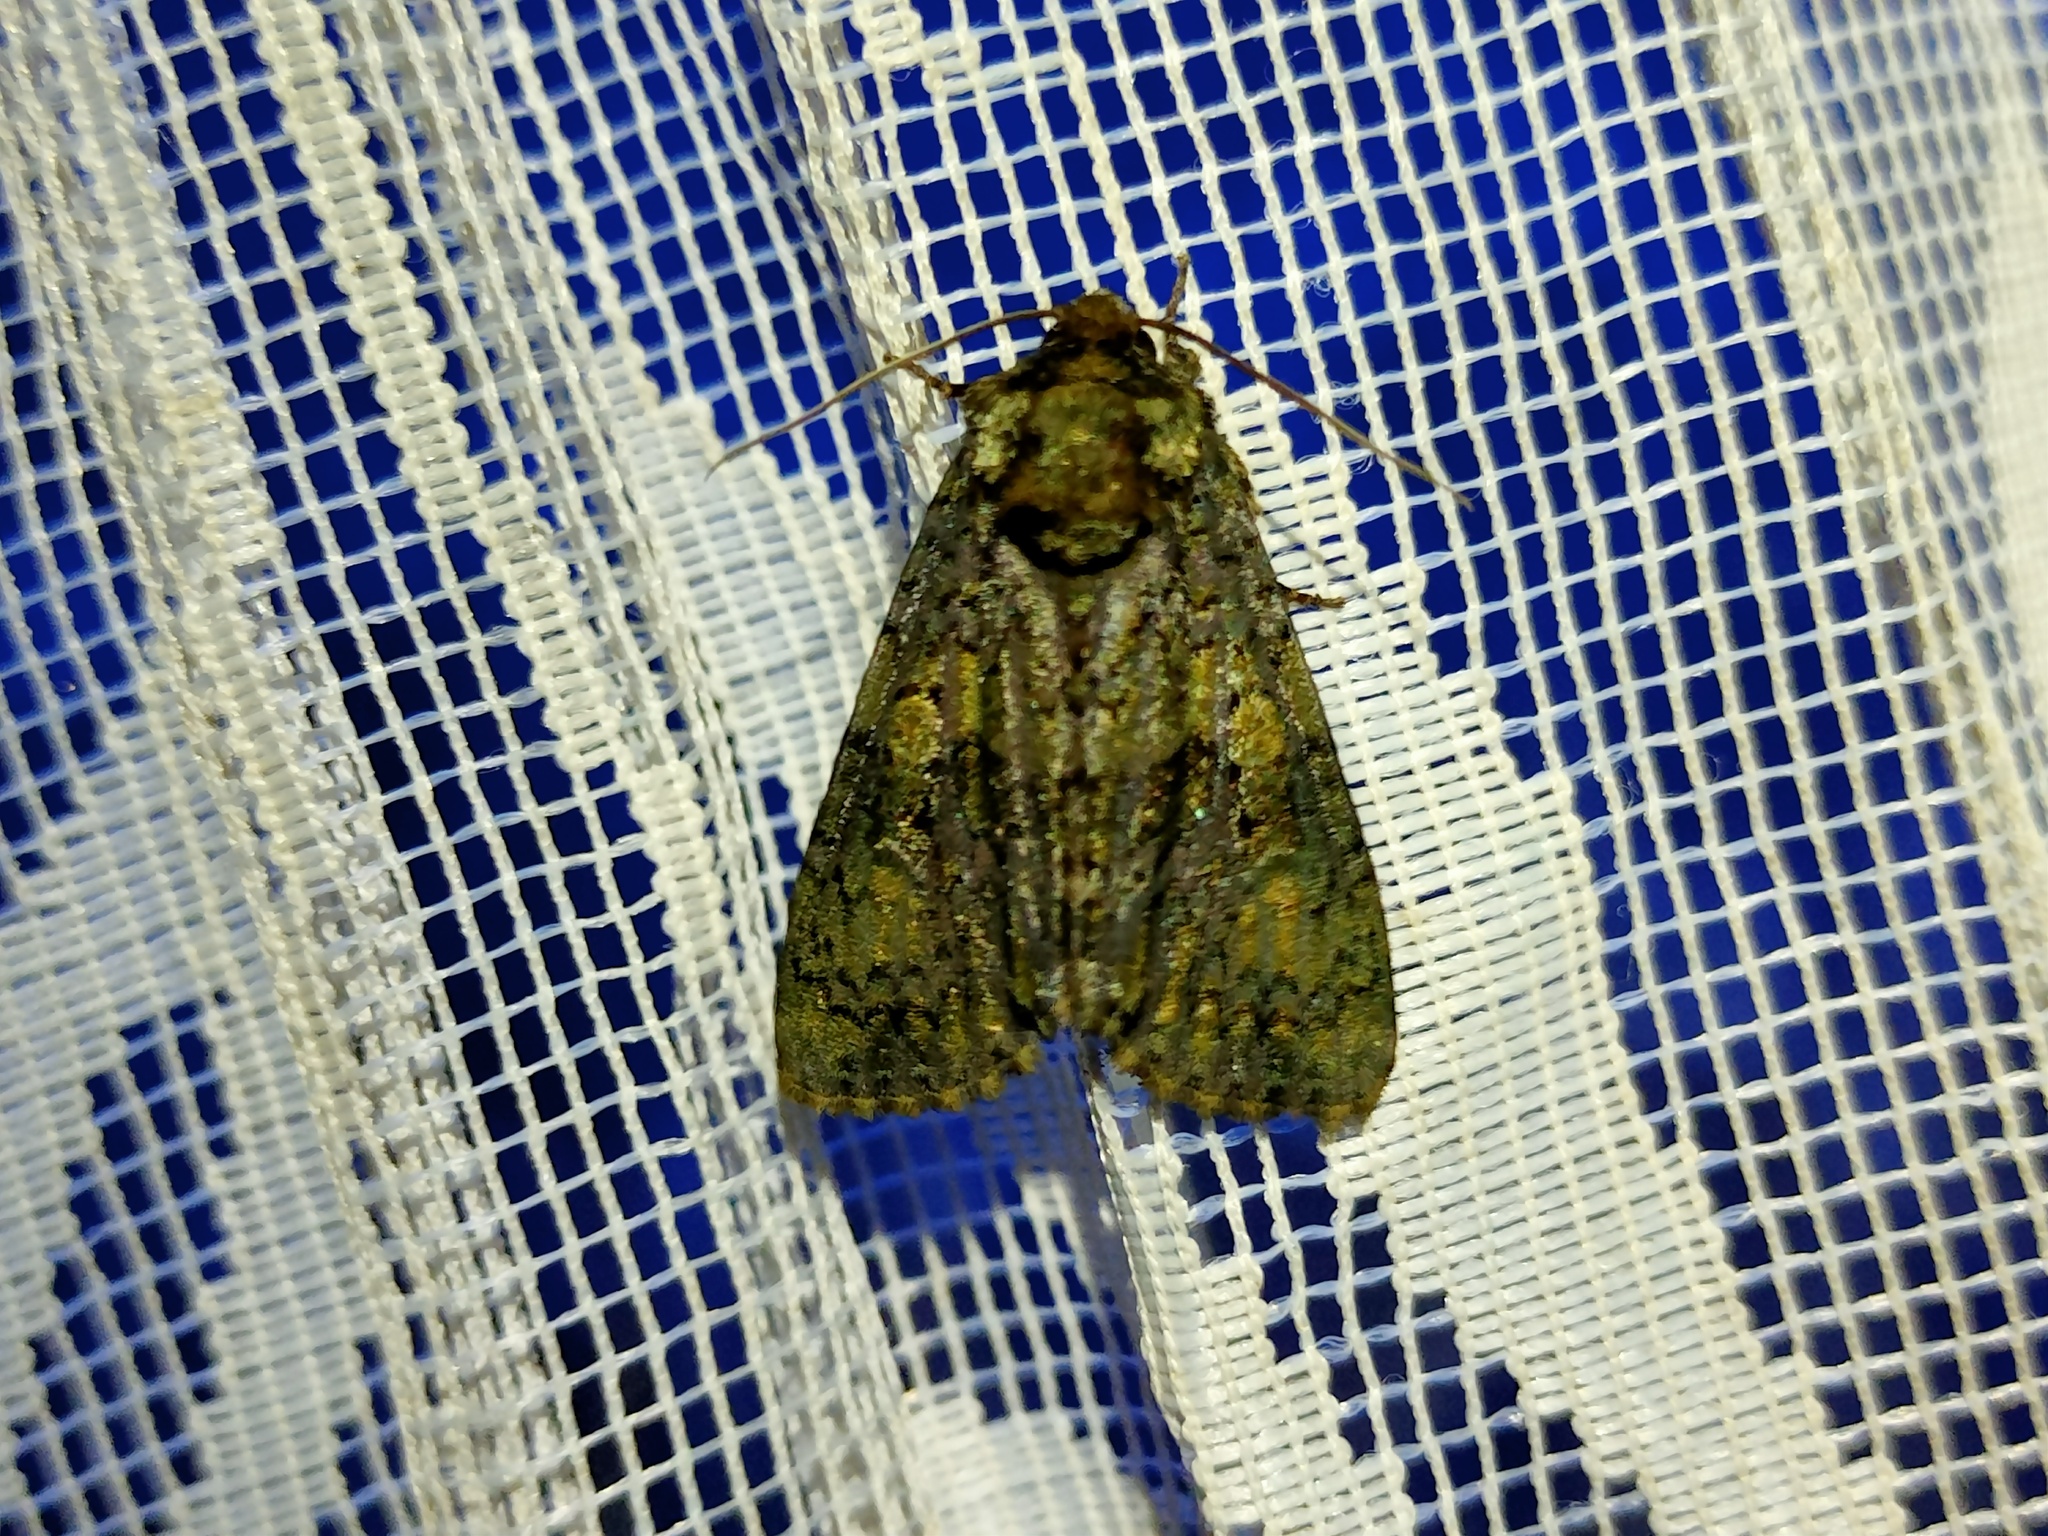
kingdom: Animalia
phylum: Arthropoda
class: Insecta
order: Lepidoptera
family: Noctuidae
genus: Craniophora
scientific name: Craniophora ligustri
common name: Coronet
